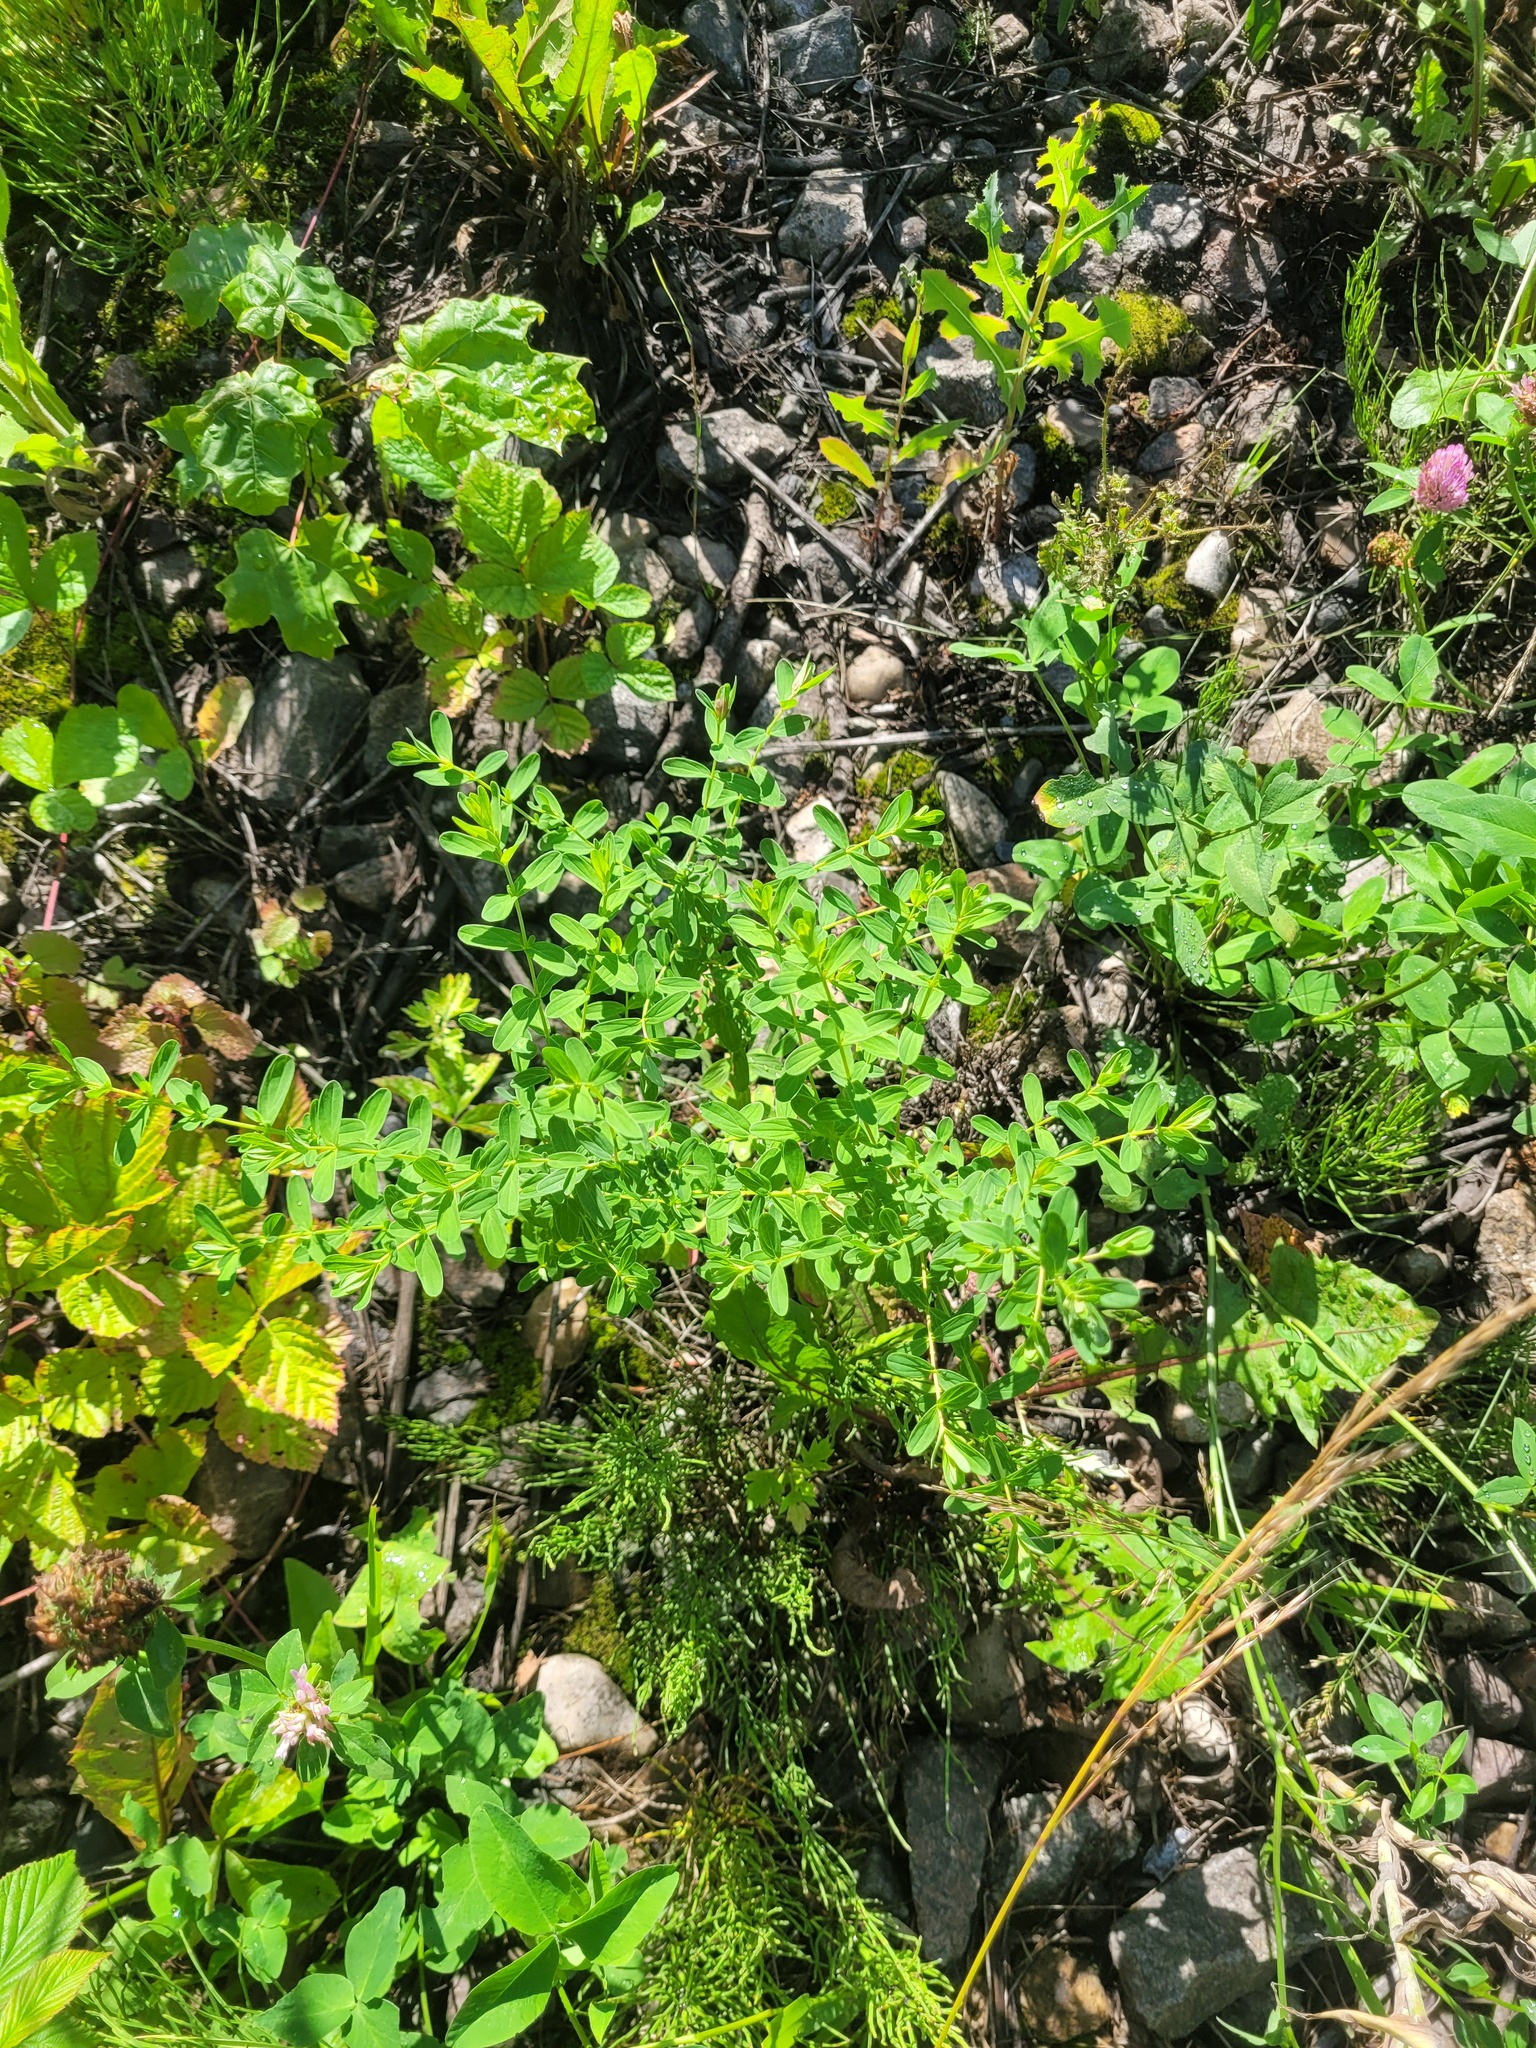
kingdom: Plantae
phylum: Tracheophyta
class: Magnoliopsida
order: Malpighiales
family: Hypericaceae
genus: Hypericum
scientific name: Hypericum perforatum
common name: Common st. johnswort
